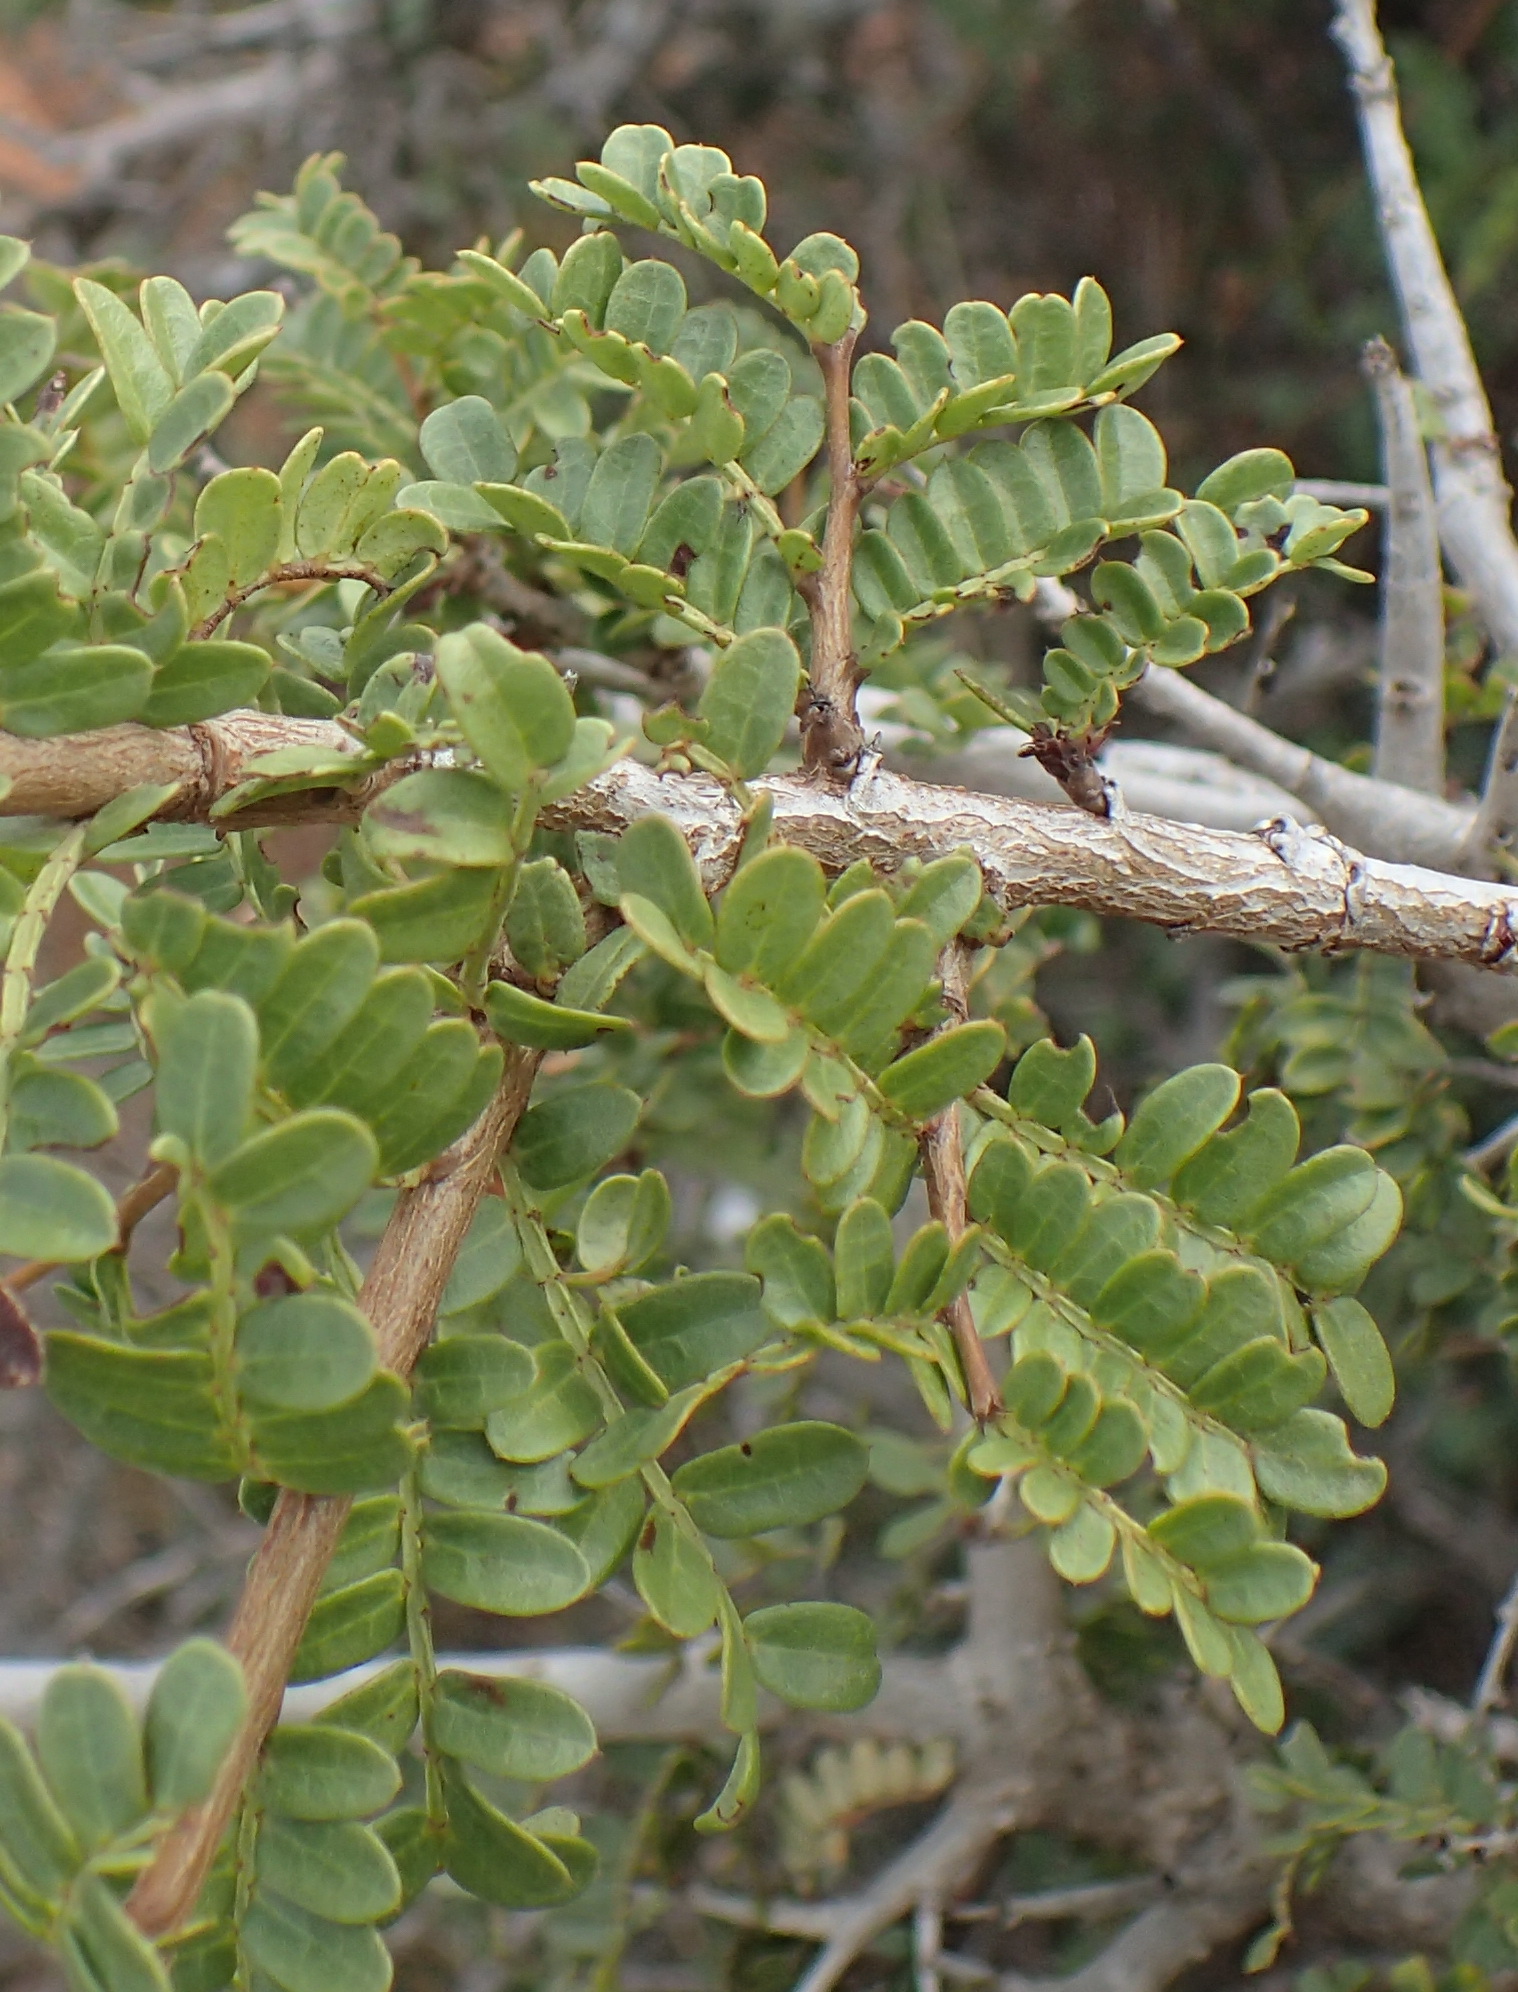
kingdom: Plantae
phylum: Tracheophyta
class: Magnoliopsida
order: Fabales
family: Fabaceae
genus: Schotia
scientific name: Schotia afra
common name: Hottentot's bean
